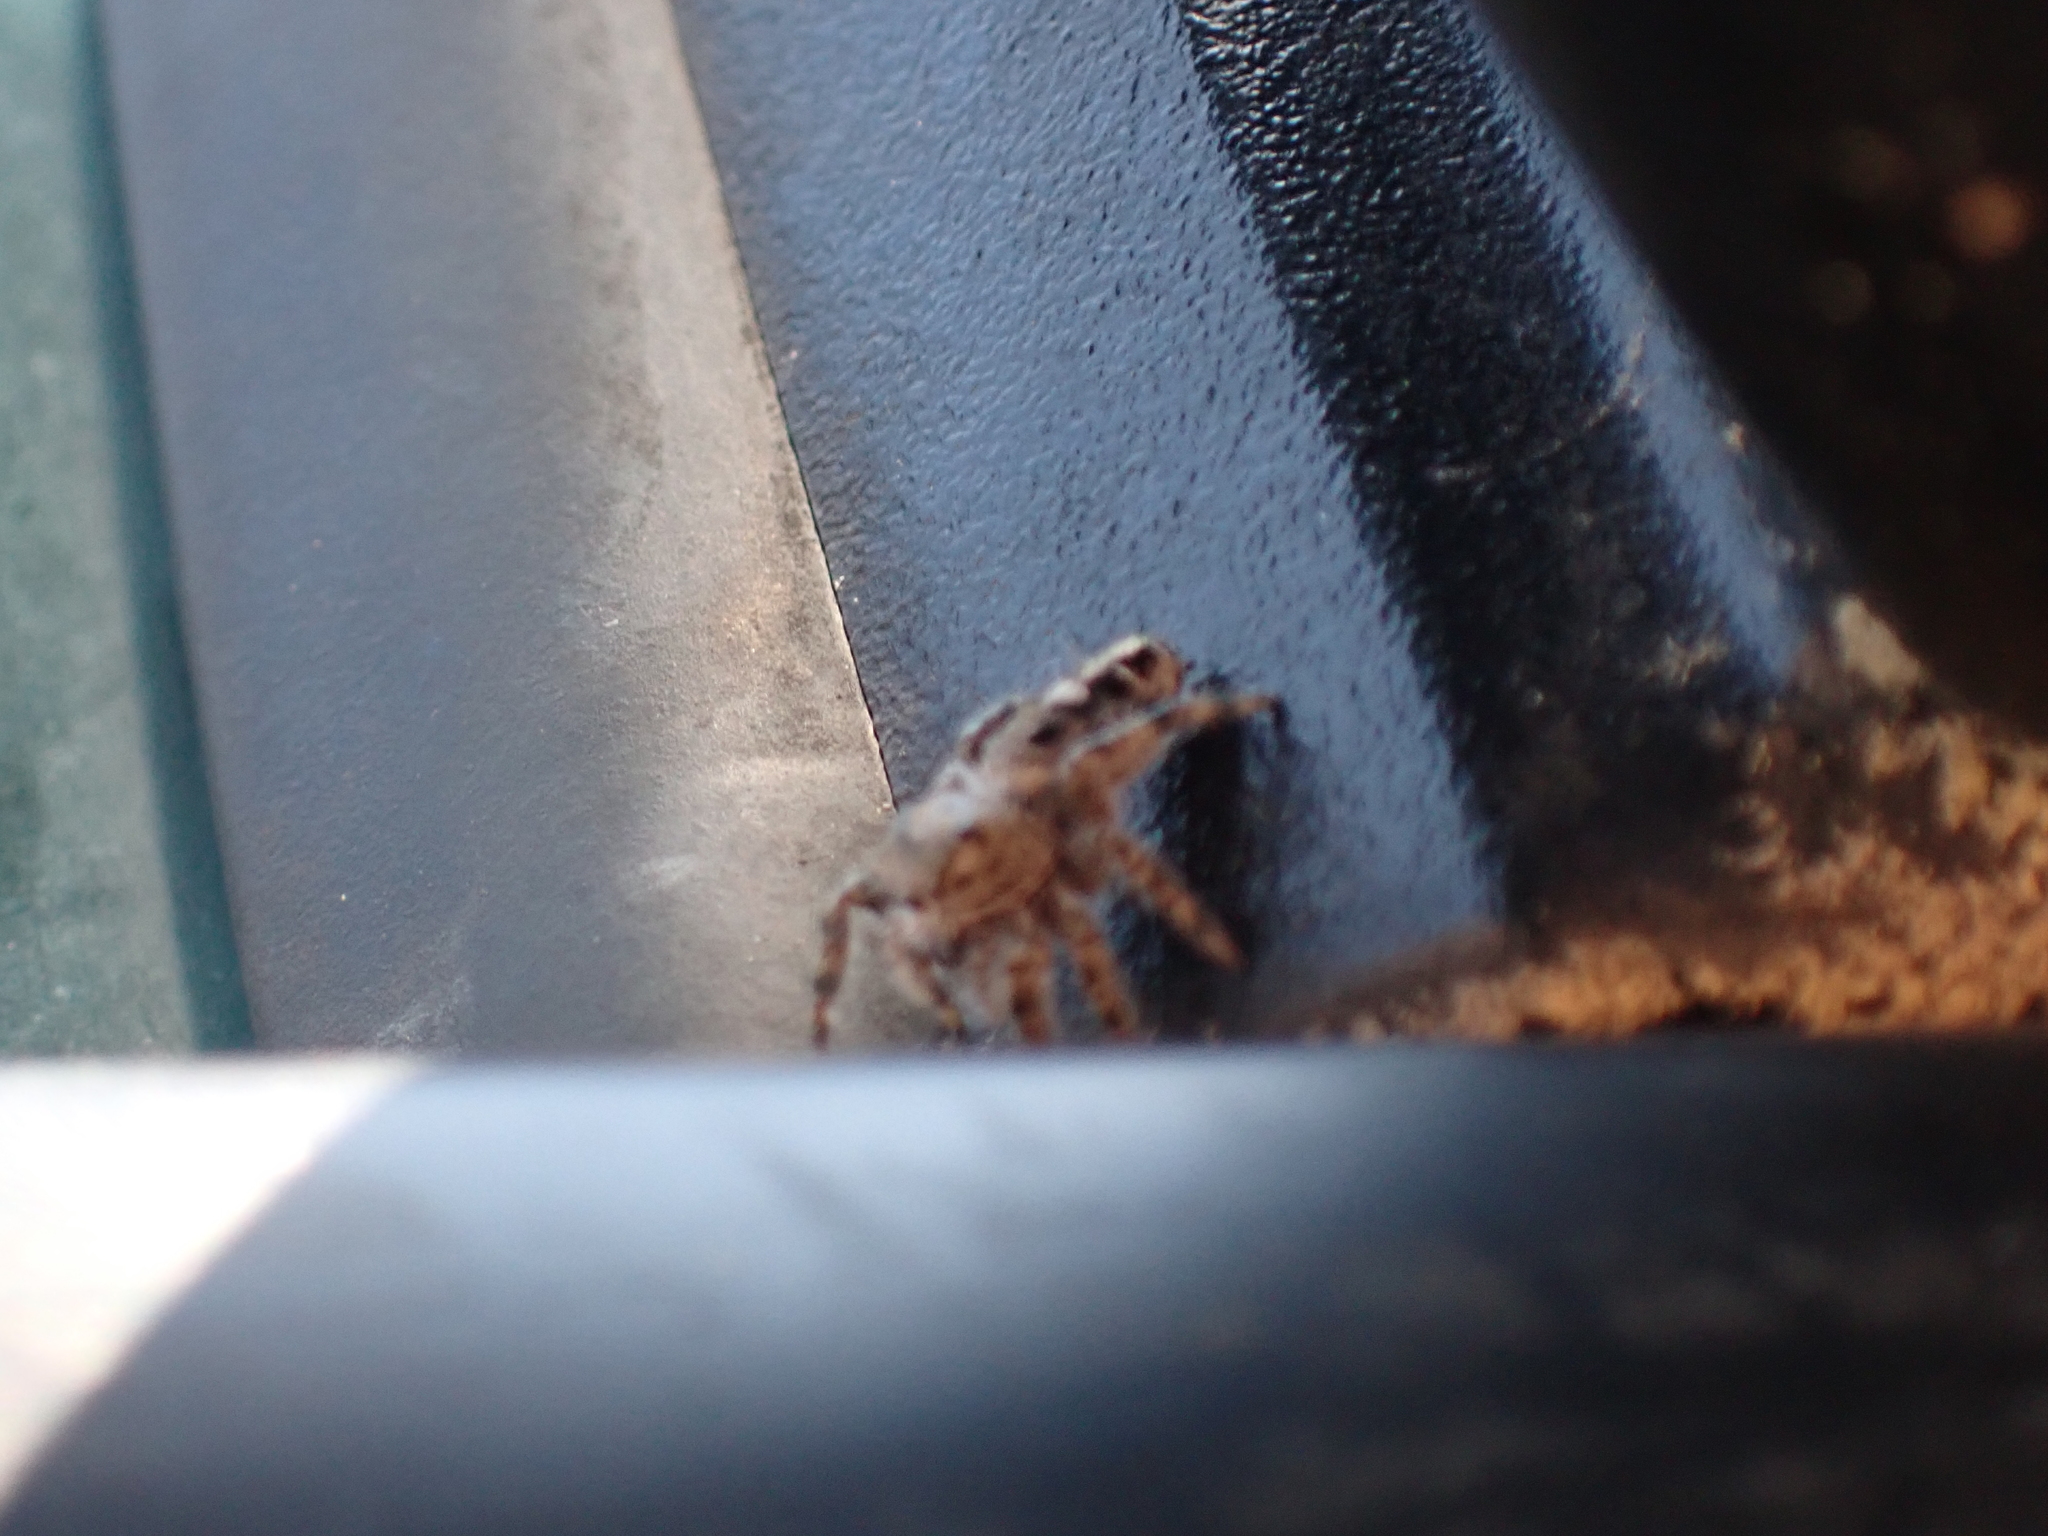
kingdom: Animalia
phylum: Arthropoda
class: Arachnida
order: Araneae
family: Salticidae
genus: Phidippus
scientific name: Phidippus putnami
